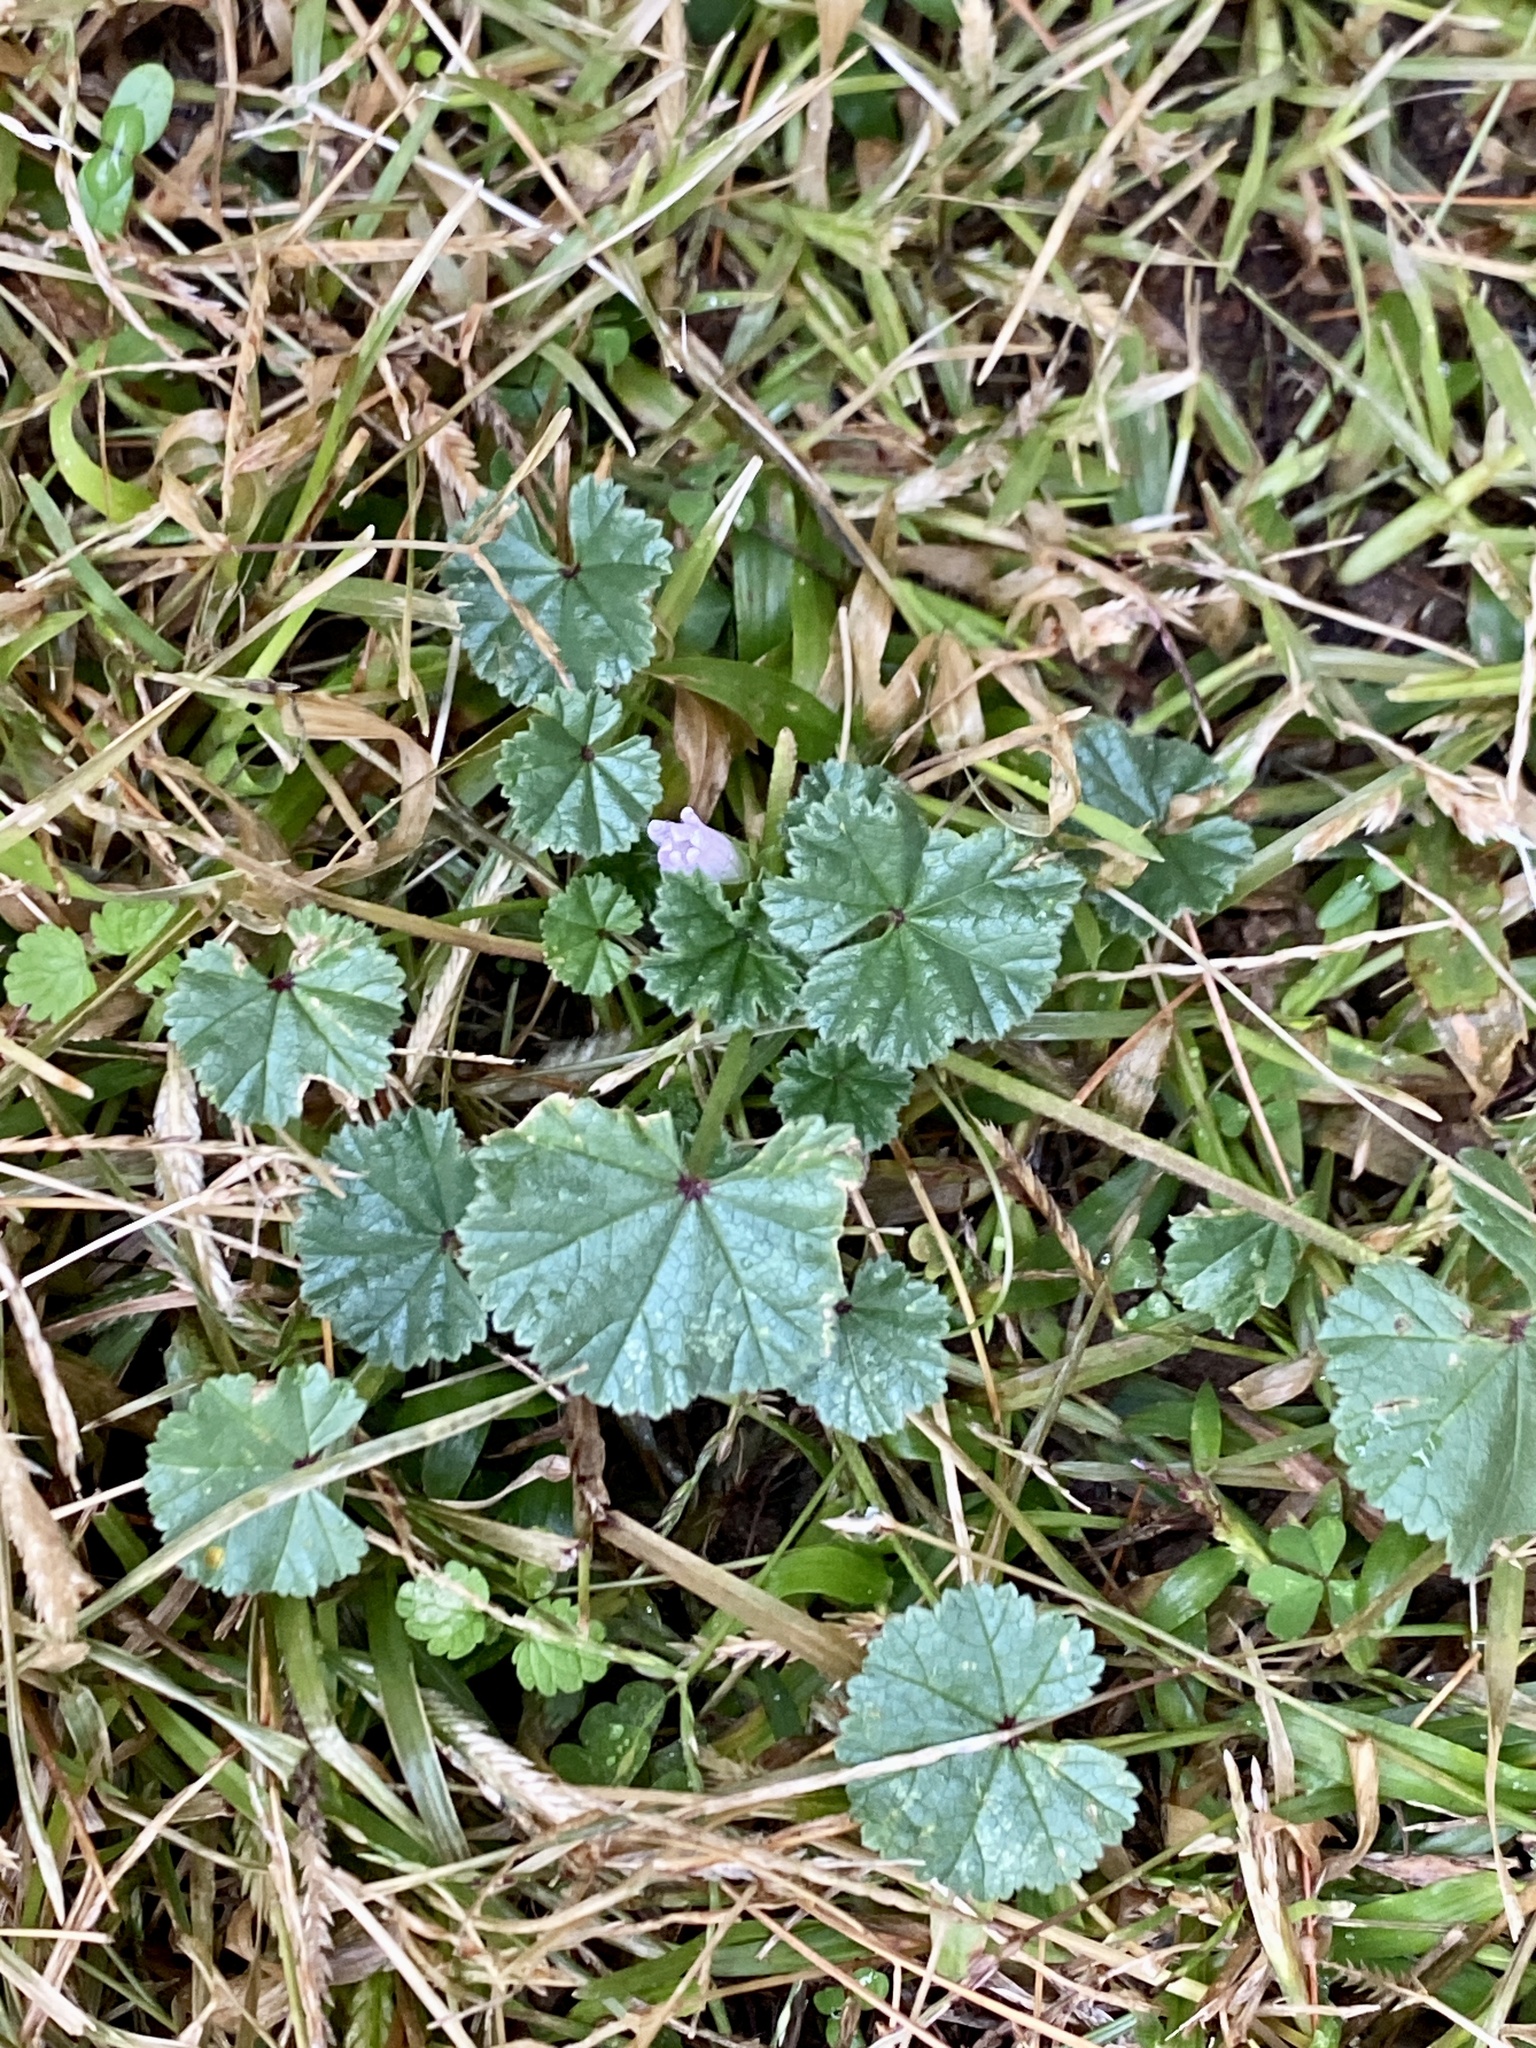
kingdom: Plantae
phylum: Tracheophyta
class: Magnoliopsida
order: Malvales
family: Malvaceae
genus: Malva
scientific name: Malva neglecta
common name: Common mallow
